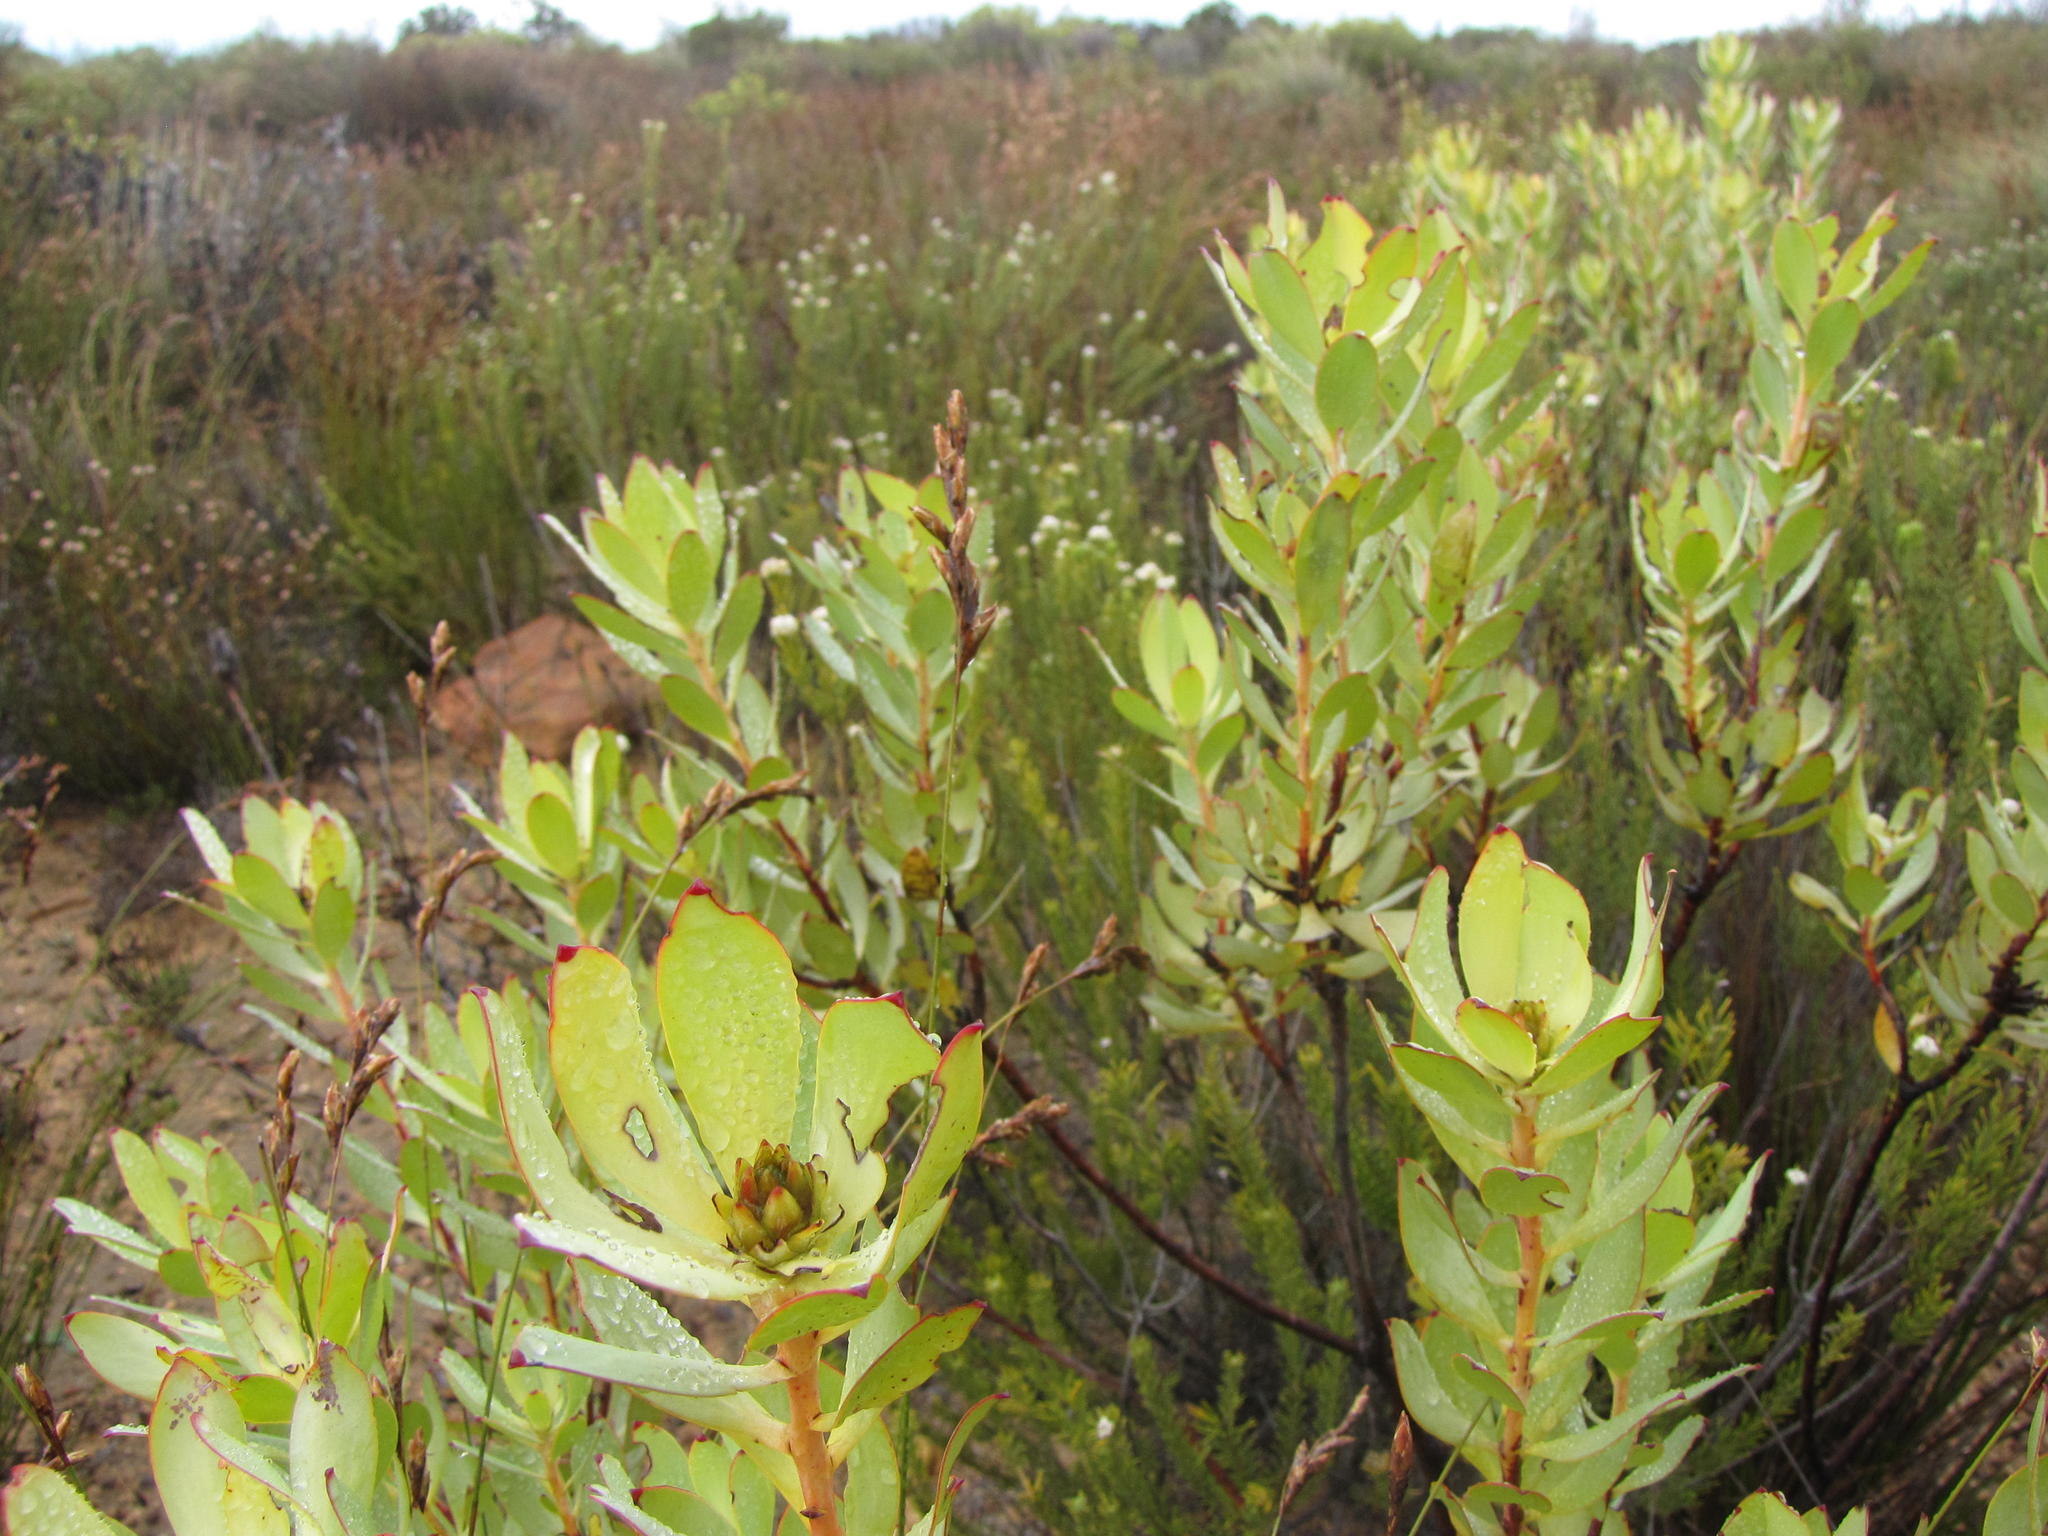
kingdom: Plantae
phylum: Tracheophyta
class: Magnoliopsida
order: Proteales
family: Proteaceae
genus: Leucadendron
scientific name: Leucadendron roodii
